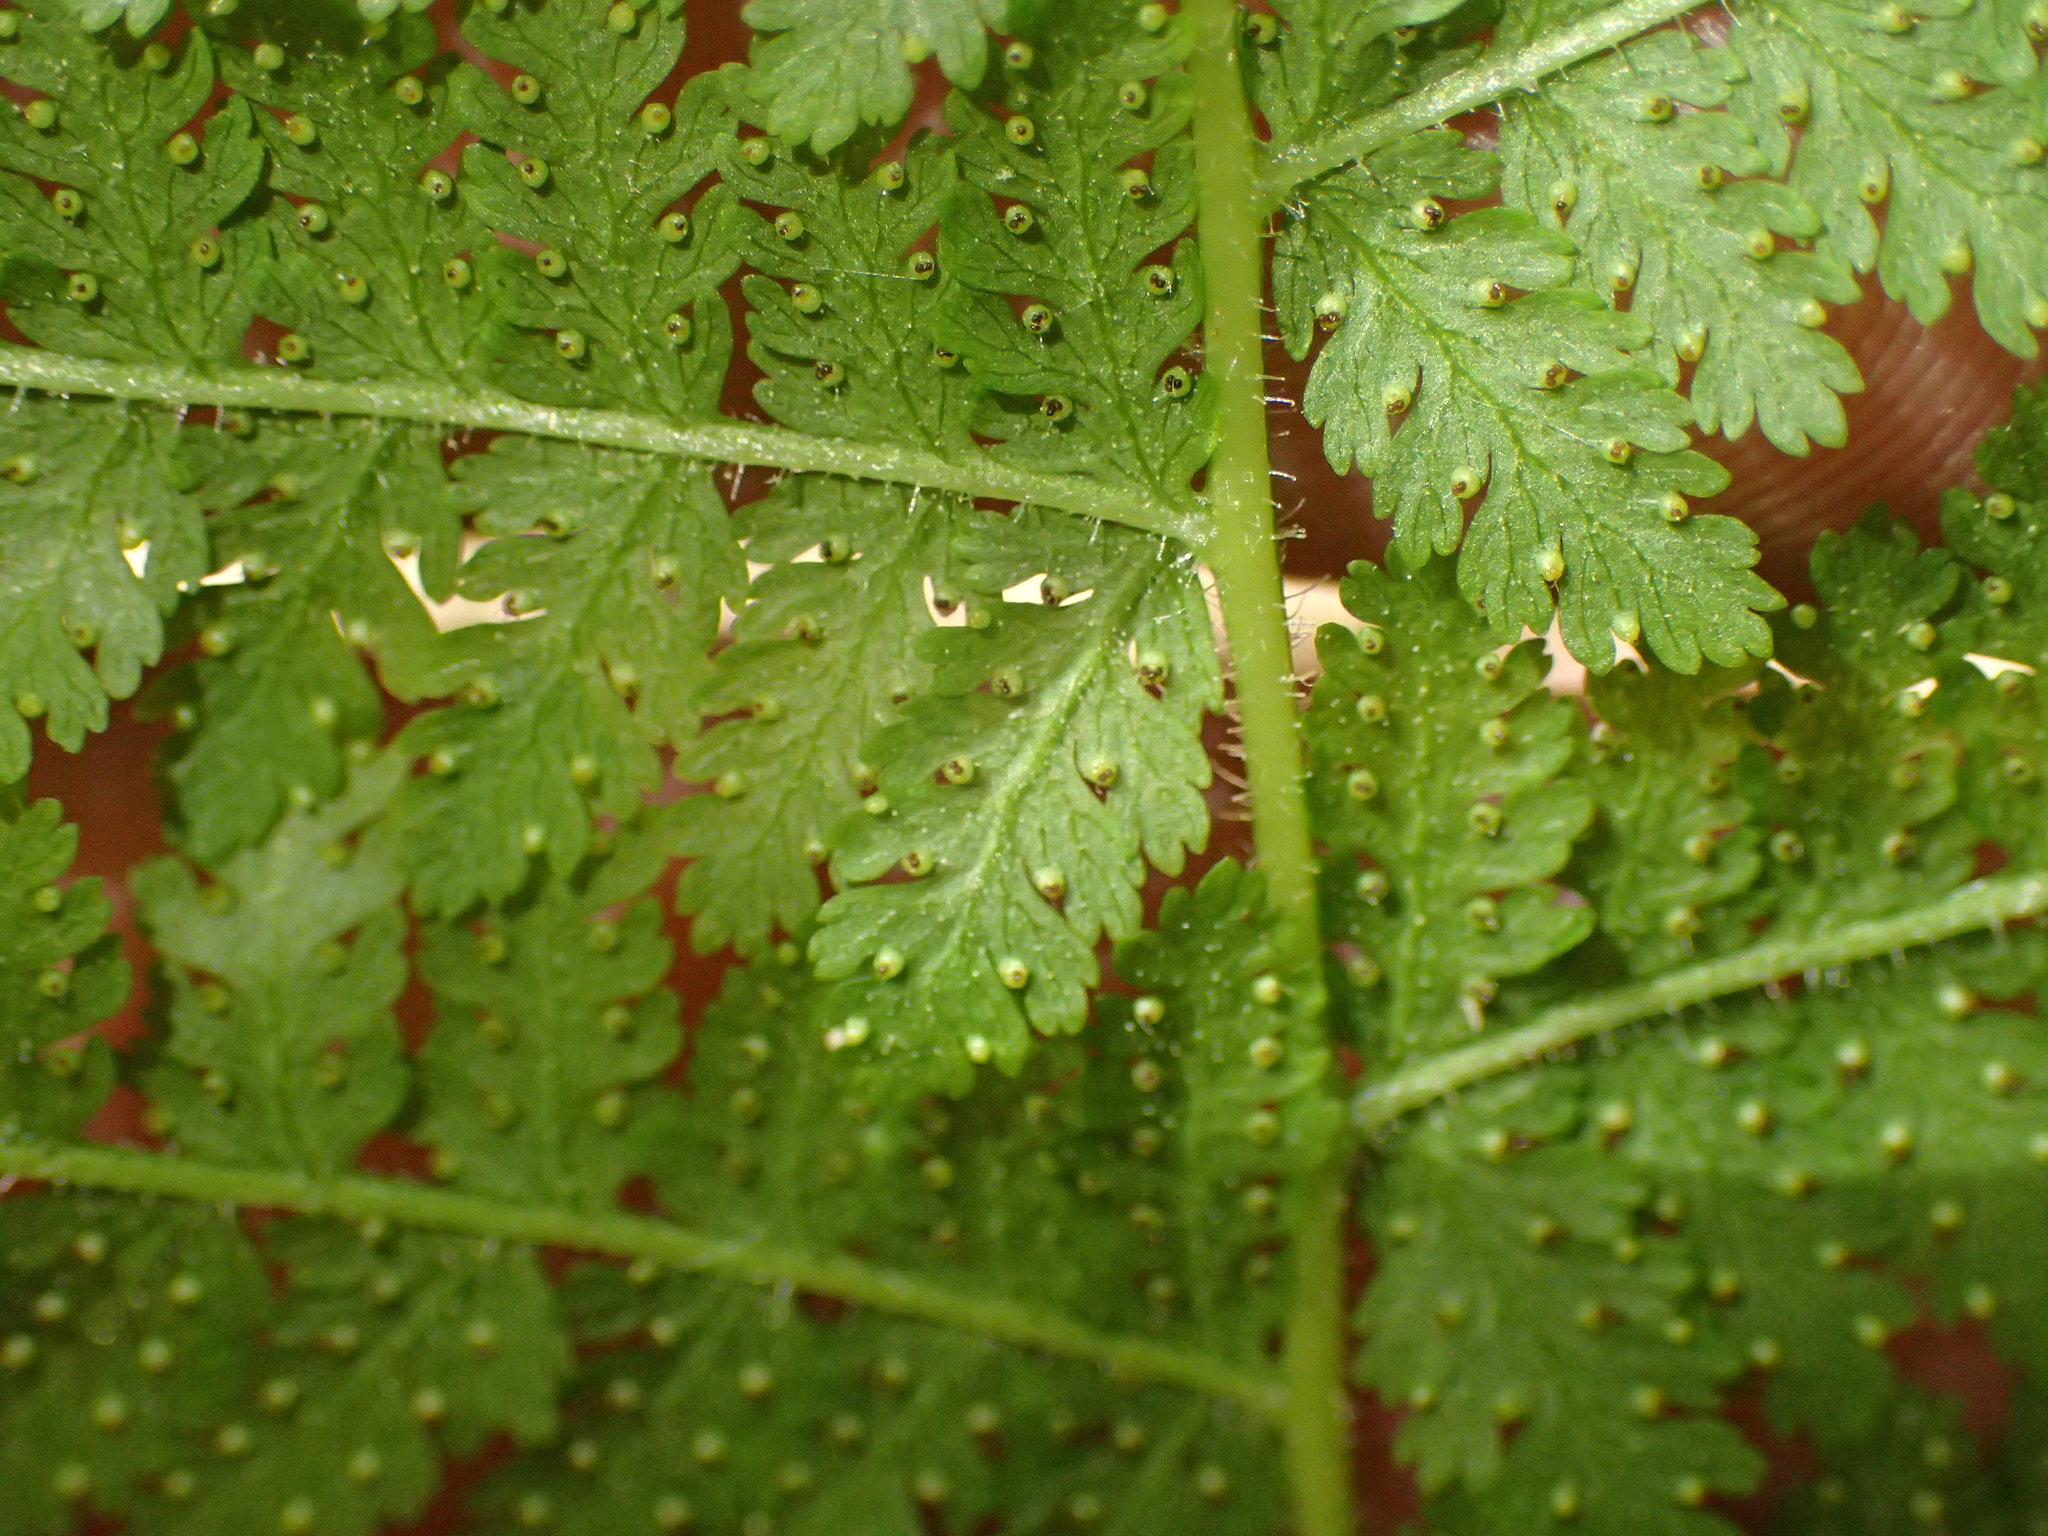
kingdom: Plantae
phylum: Tracheophyta
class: Polypodiopsida
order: Polypodiales
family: Dennstaedtiaceae
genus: Sitobolium
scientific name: Sitobolium punctilobum
